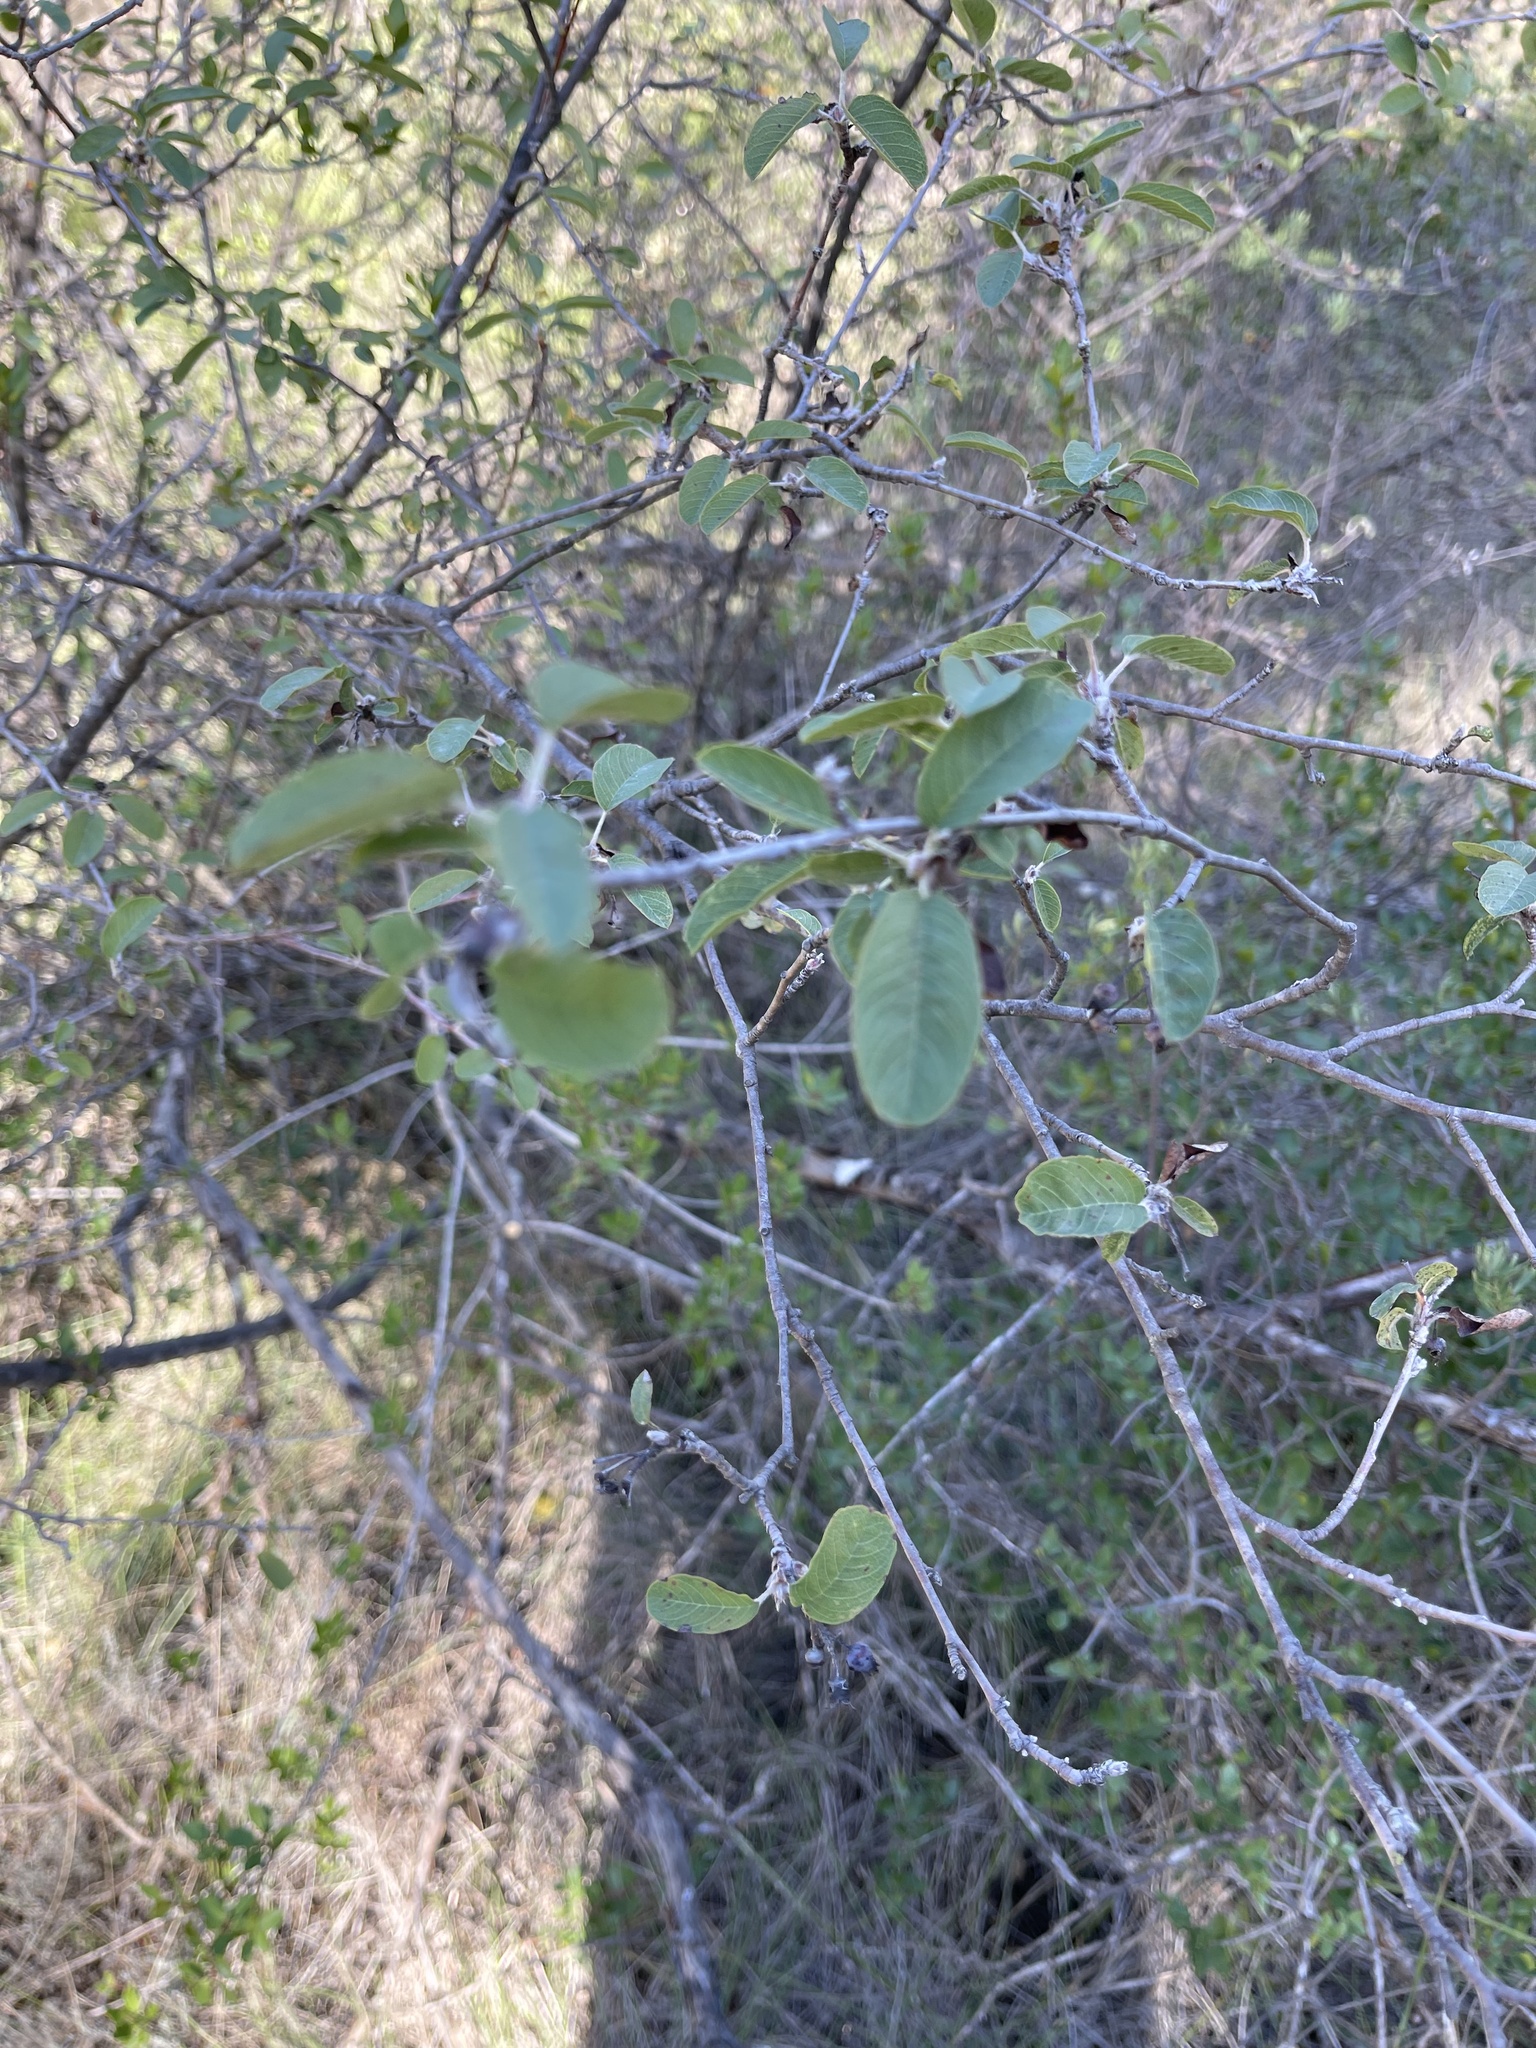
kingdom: Plantae
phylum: Tracheophyta
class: Magnoliopsida
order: Rosales
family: Rosaceae
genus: Amelanchier
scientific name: Amelanchier ovalis
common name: Serviceberry
